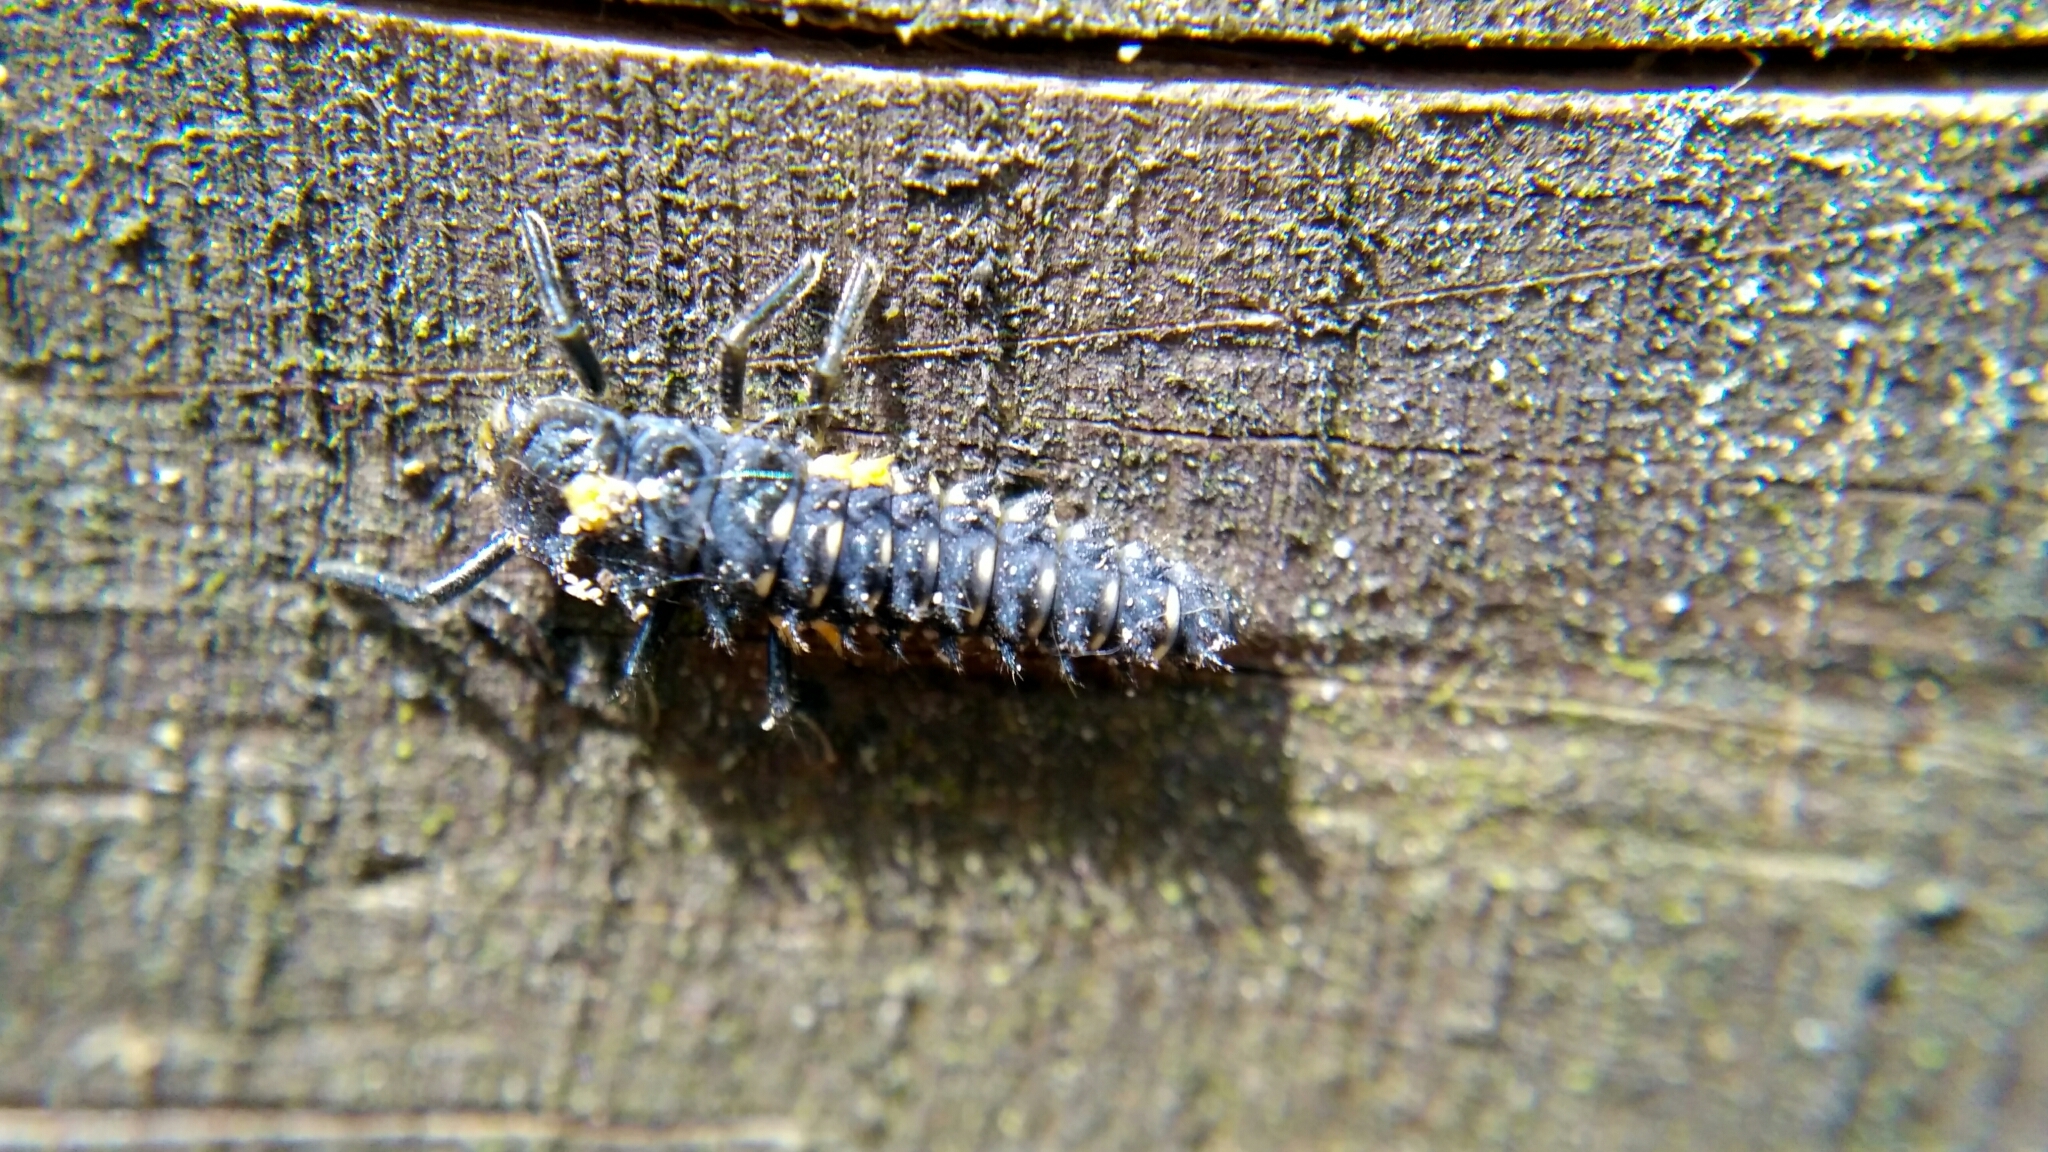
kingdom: Animalia
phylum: Arthropoda
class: Insecta
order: Coleoptera
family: Coccinellidae
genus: Anatis
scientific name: Anatis ocellata
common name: Eyed ladybird
